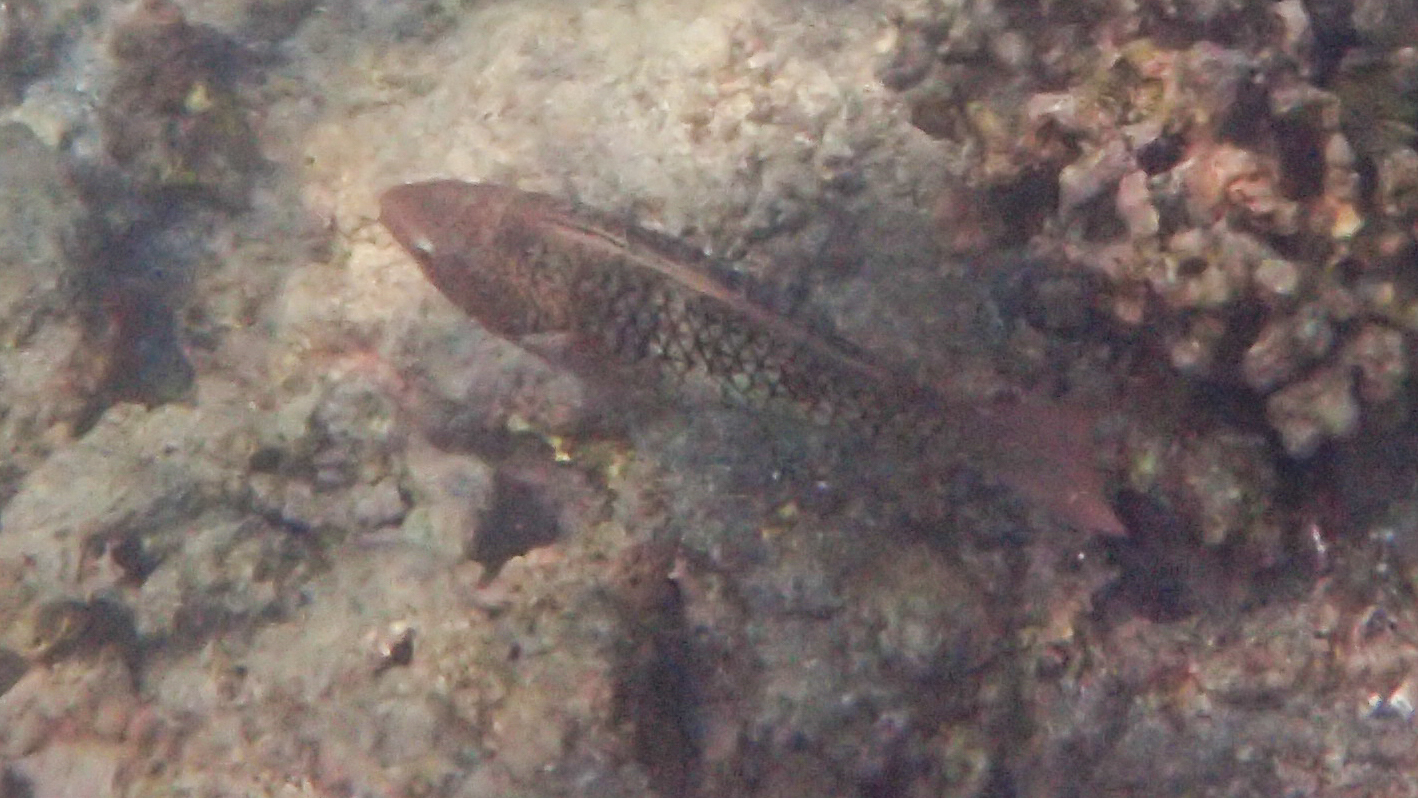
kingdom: Animalia
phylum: Chordata
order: Perciformes
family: Scaridae
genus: Scarus
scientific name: Scarus rubroviolaceus
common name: Ember parrotfish
